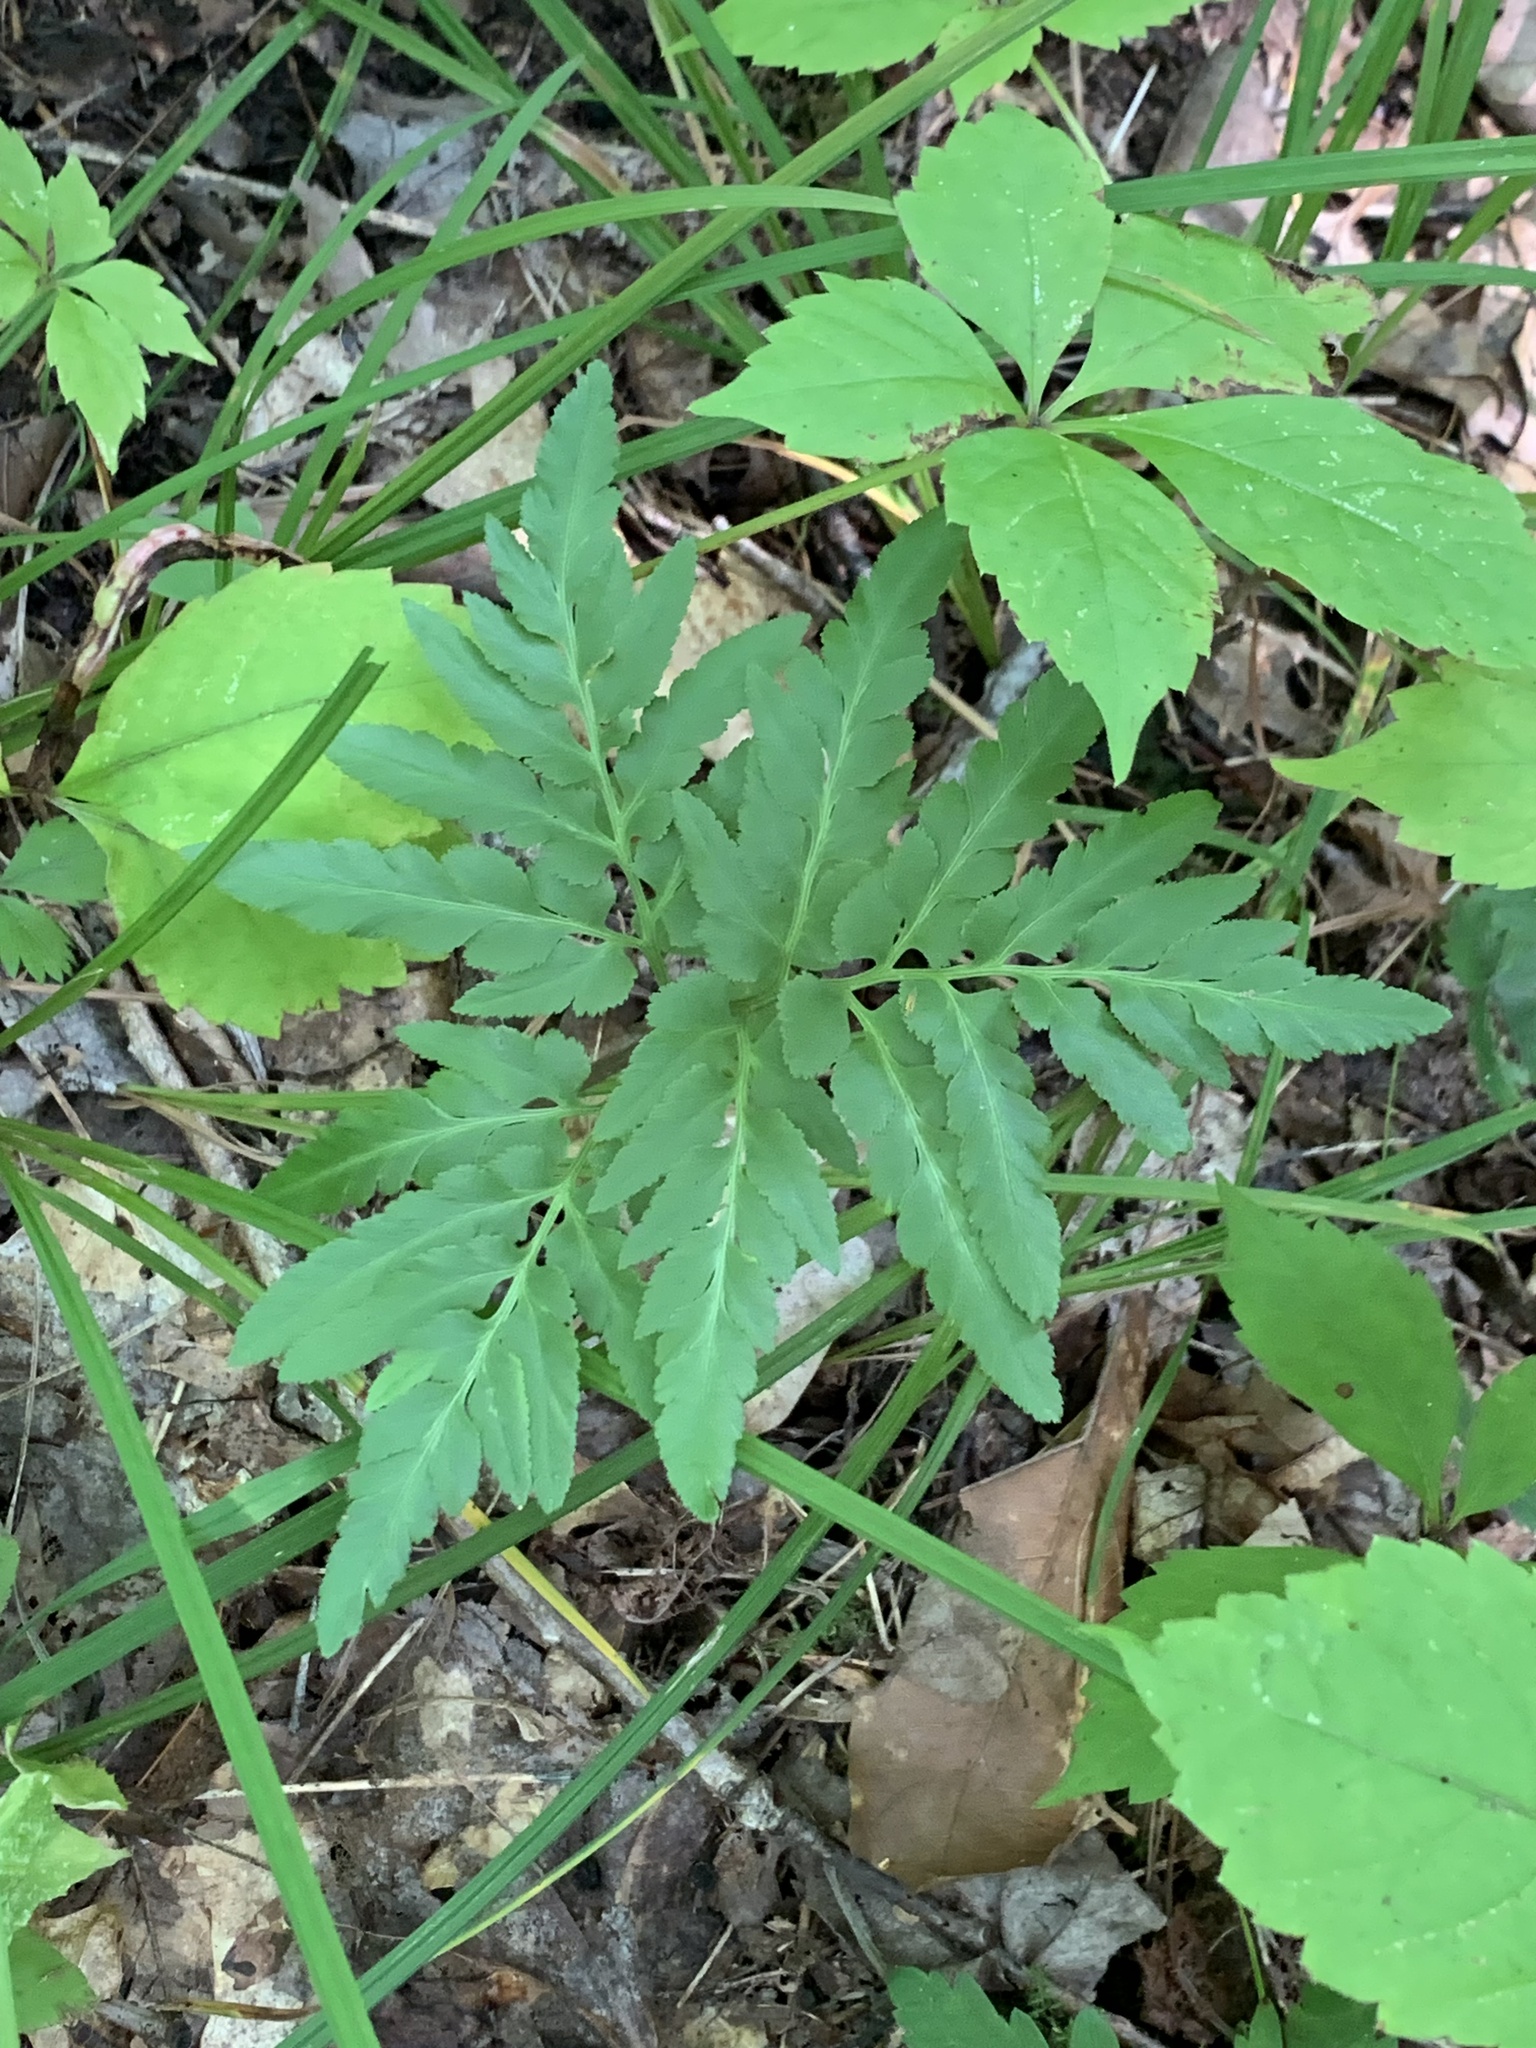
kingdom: Plantae
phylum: Tracheophyta
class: Polypodiopsida
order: Ophioglossales
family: Ophioglossaceae
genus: Sceptridium
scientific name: Sceptridium dissectum
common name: Cut-leaved grapefern
